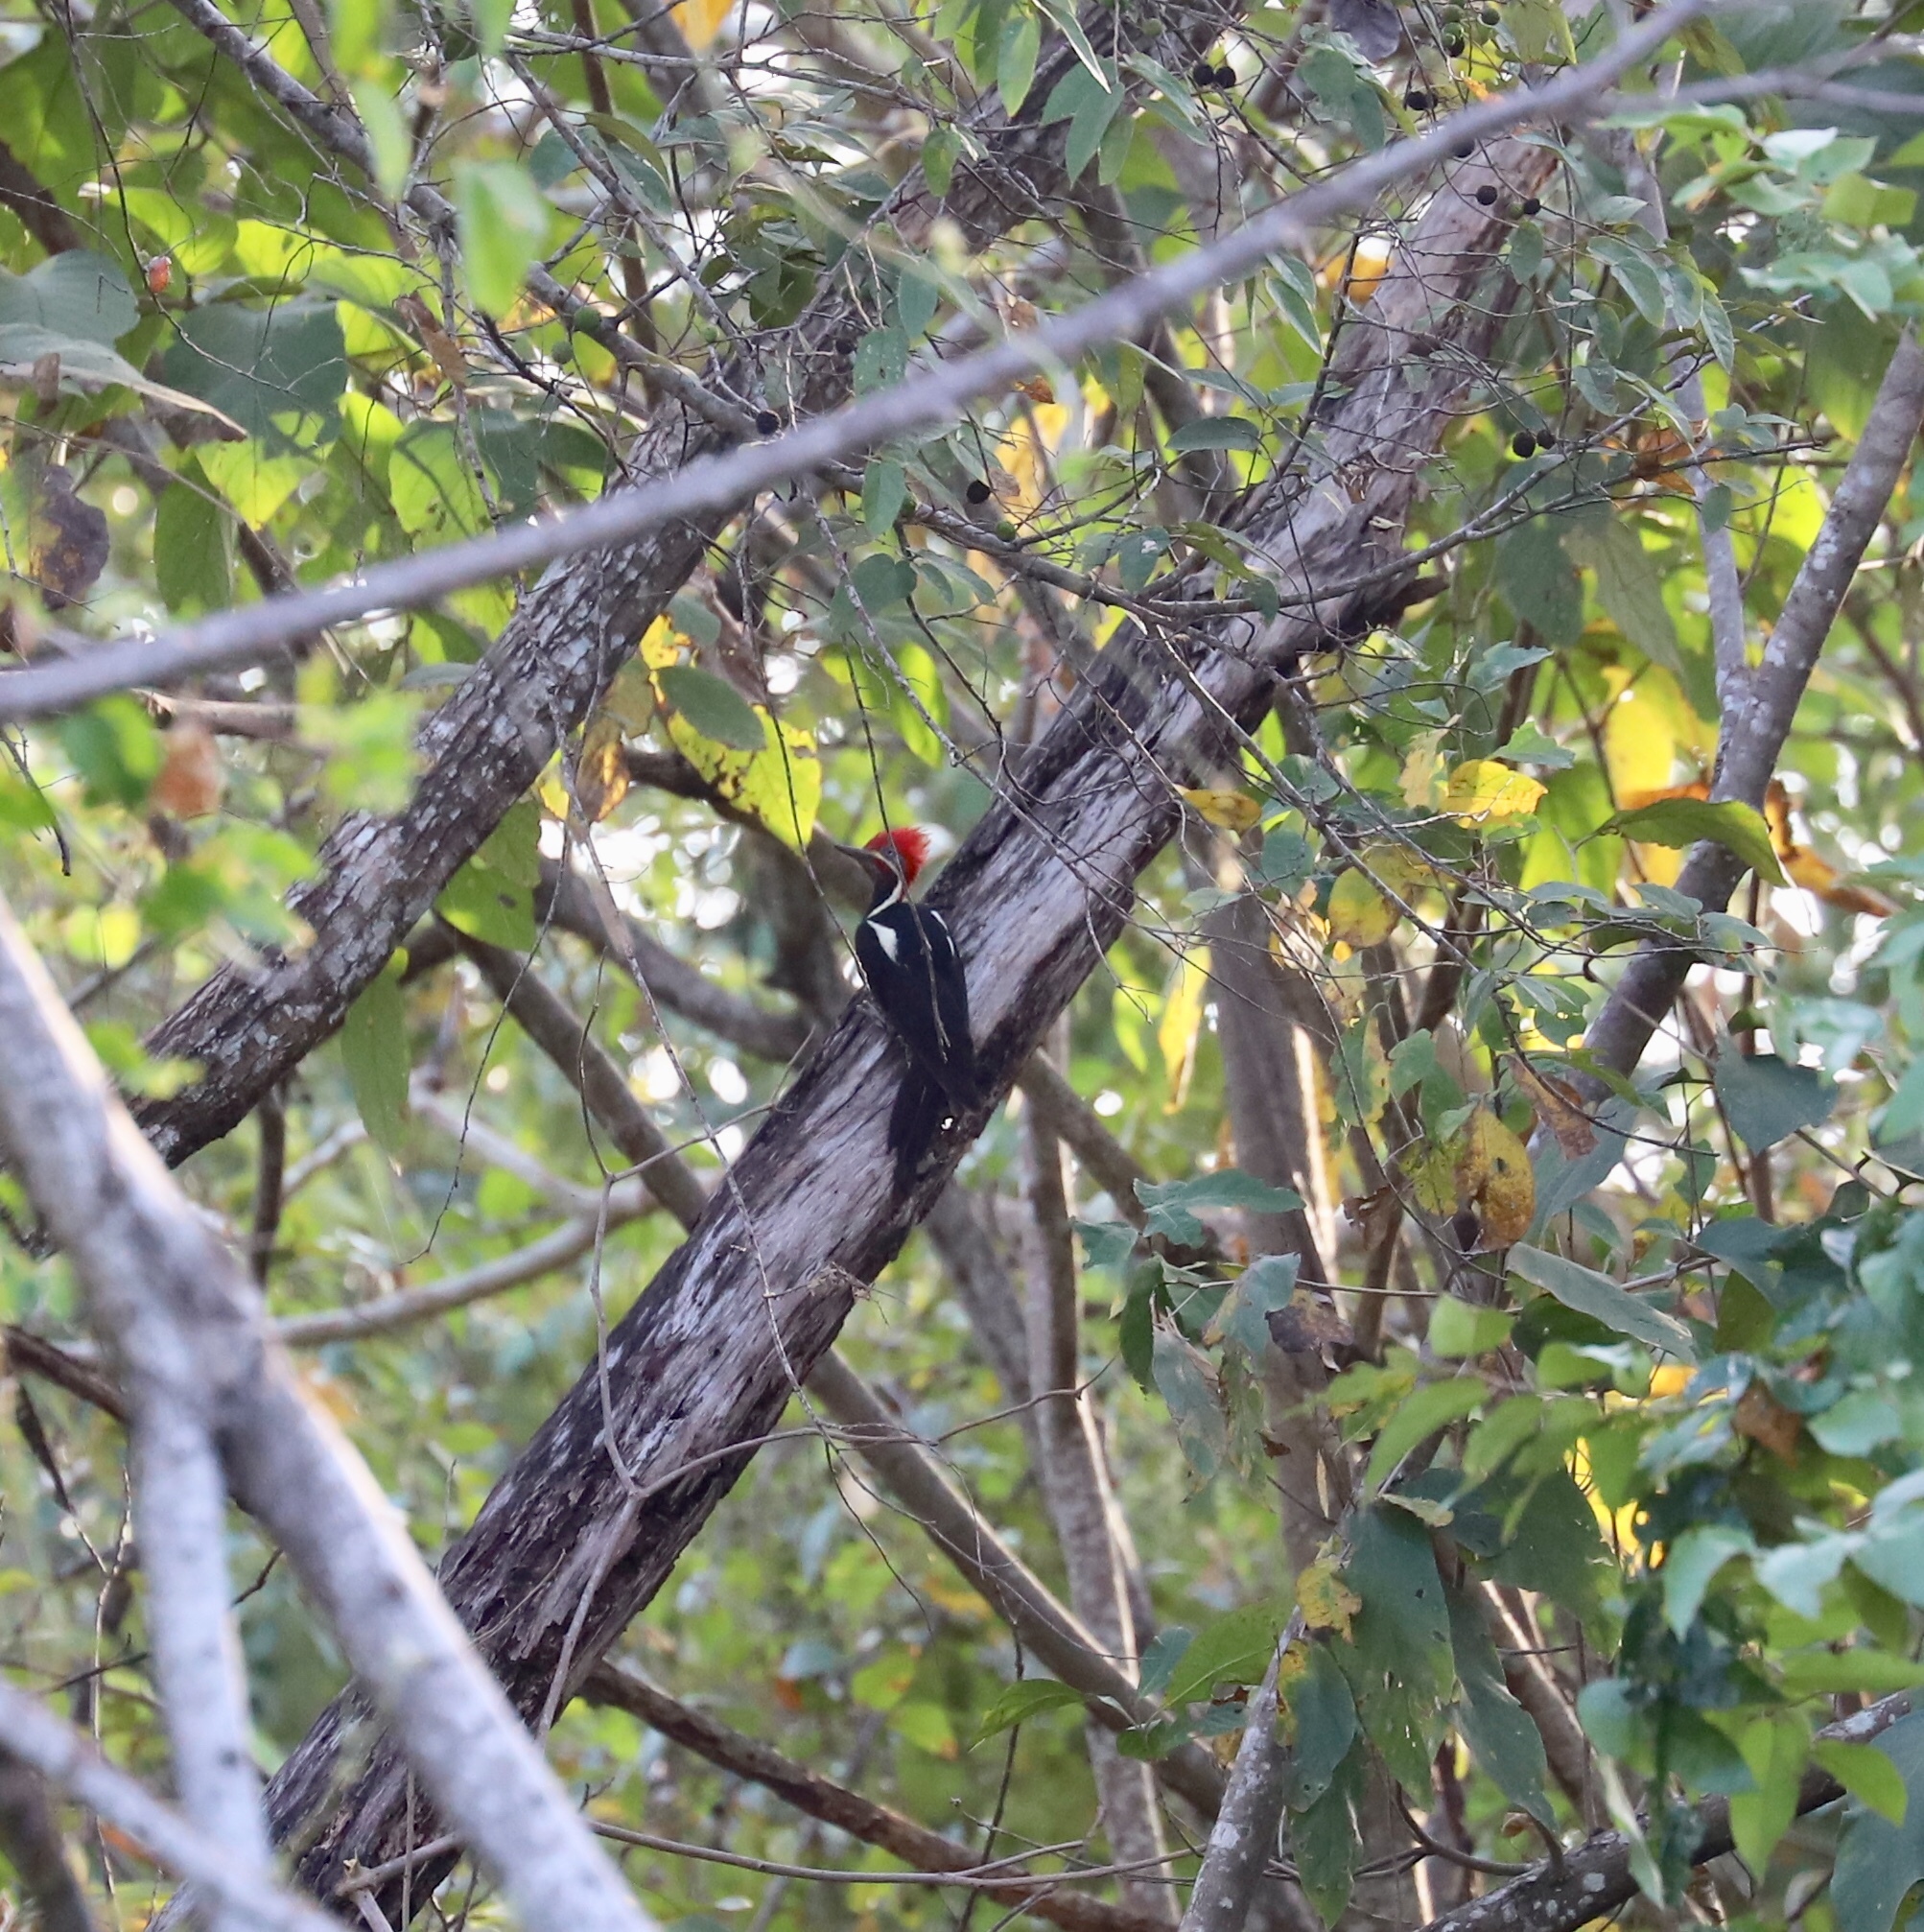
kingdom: Animalia
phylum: Chordata
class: Aves
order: Piciformes
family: Picidae
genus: Dryocopus
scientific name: Dryocopus lineatus
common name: Lineated woodpecker
